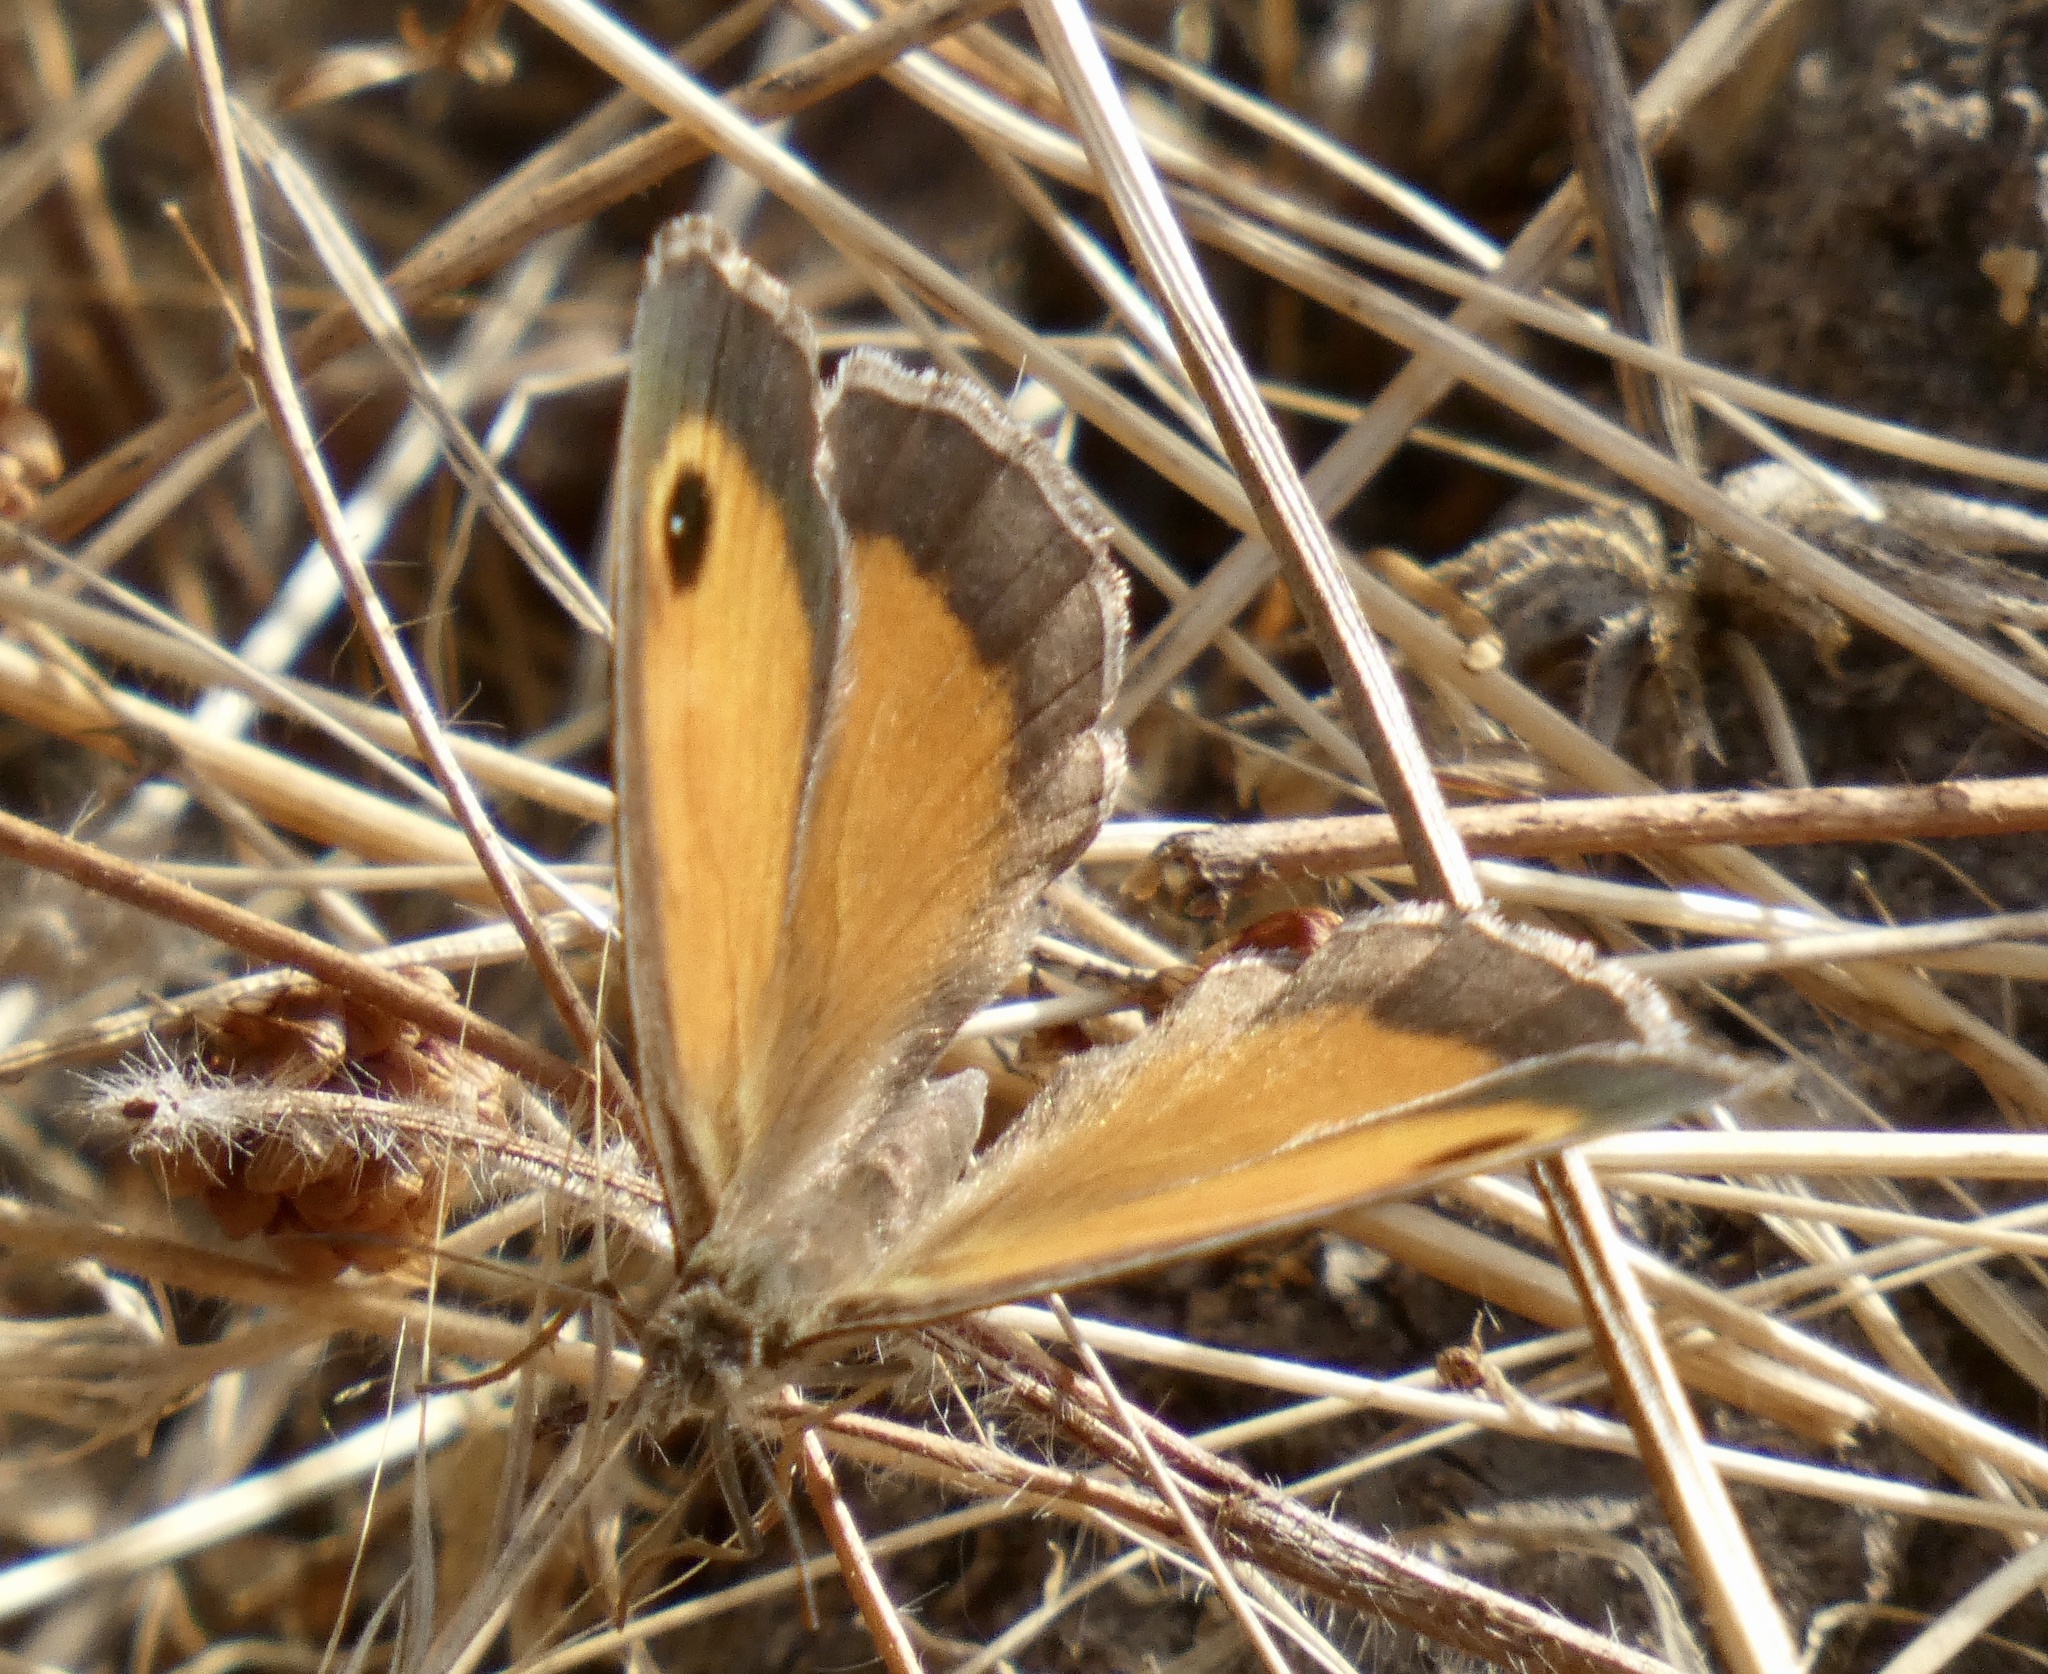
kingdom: Animalia
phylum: Arthropoda
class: Insecta
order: Lepidoptera
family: Nymphalidae
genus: Pyronia
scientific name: Pyronia cecilia
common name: Southern gatekeeper
